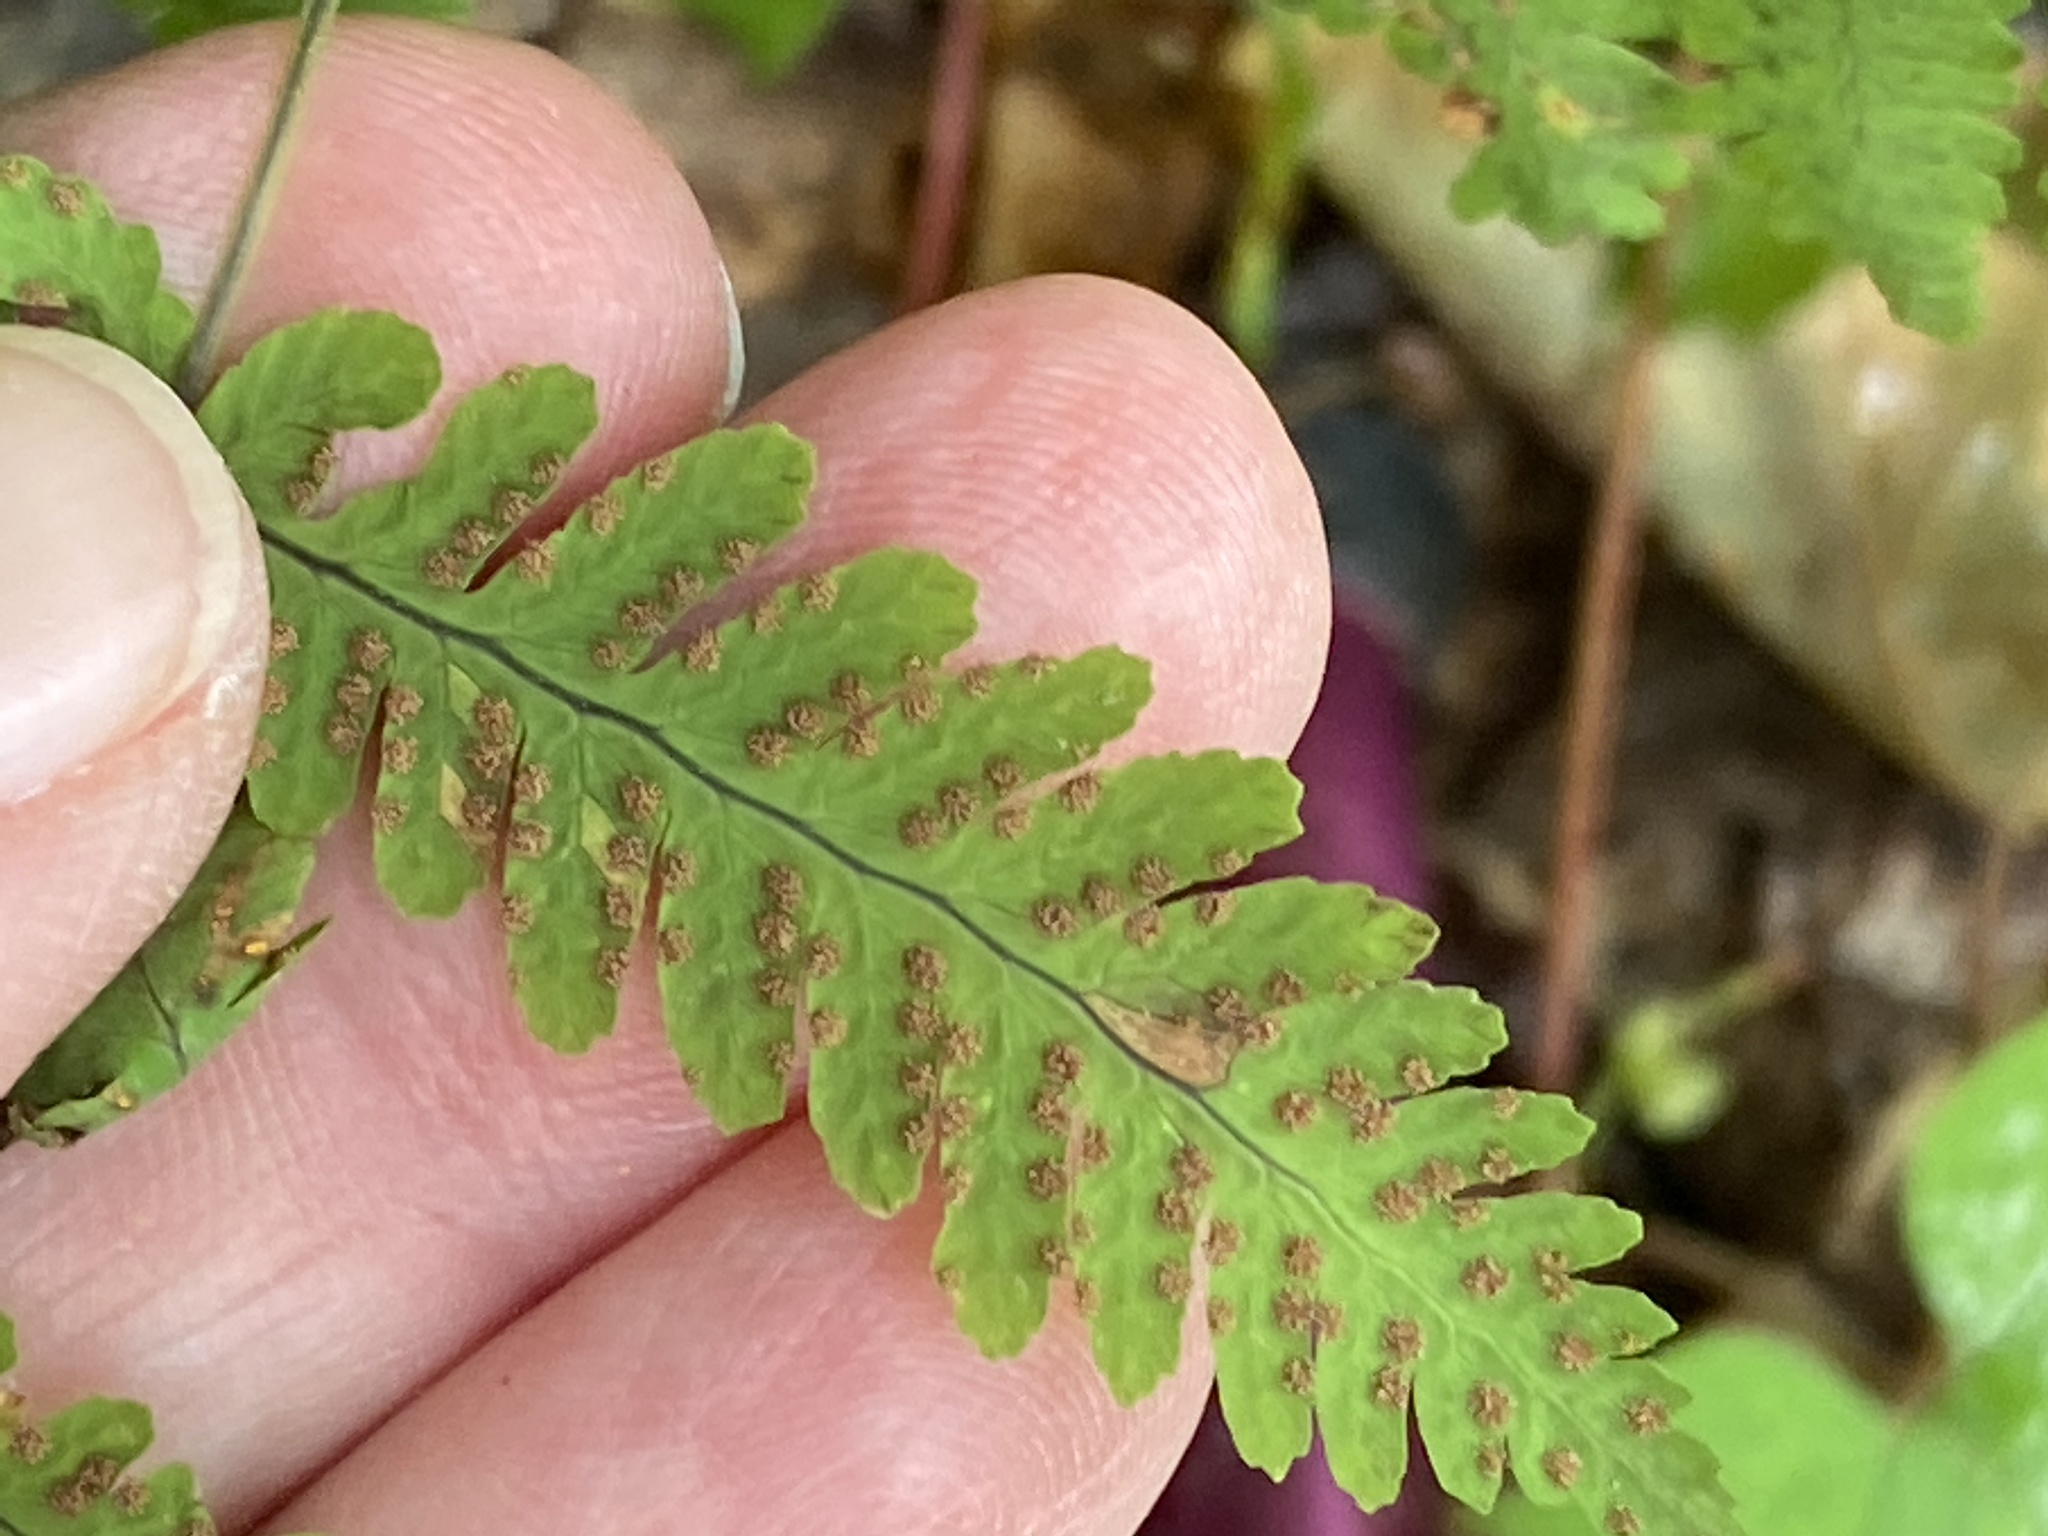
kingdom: Plantae
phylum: Tracheophyta
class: Polypodiopsida
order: Polypodiales
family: Cystopteridaceae
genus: Gymnocarpium
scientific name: Gymnocarpium dryopteris
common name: Oak fern
